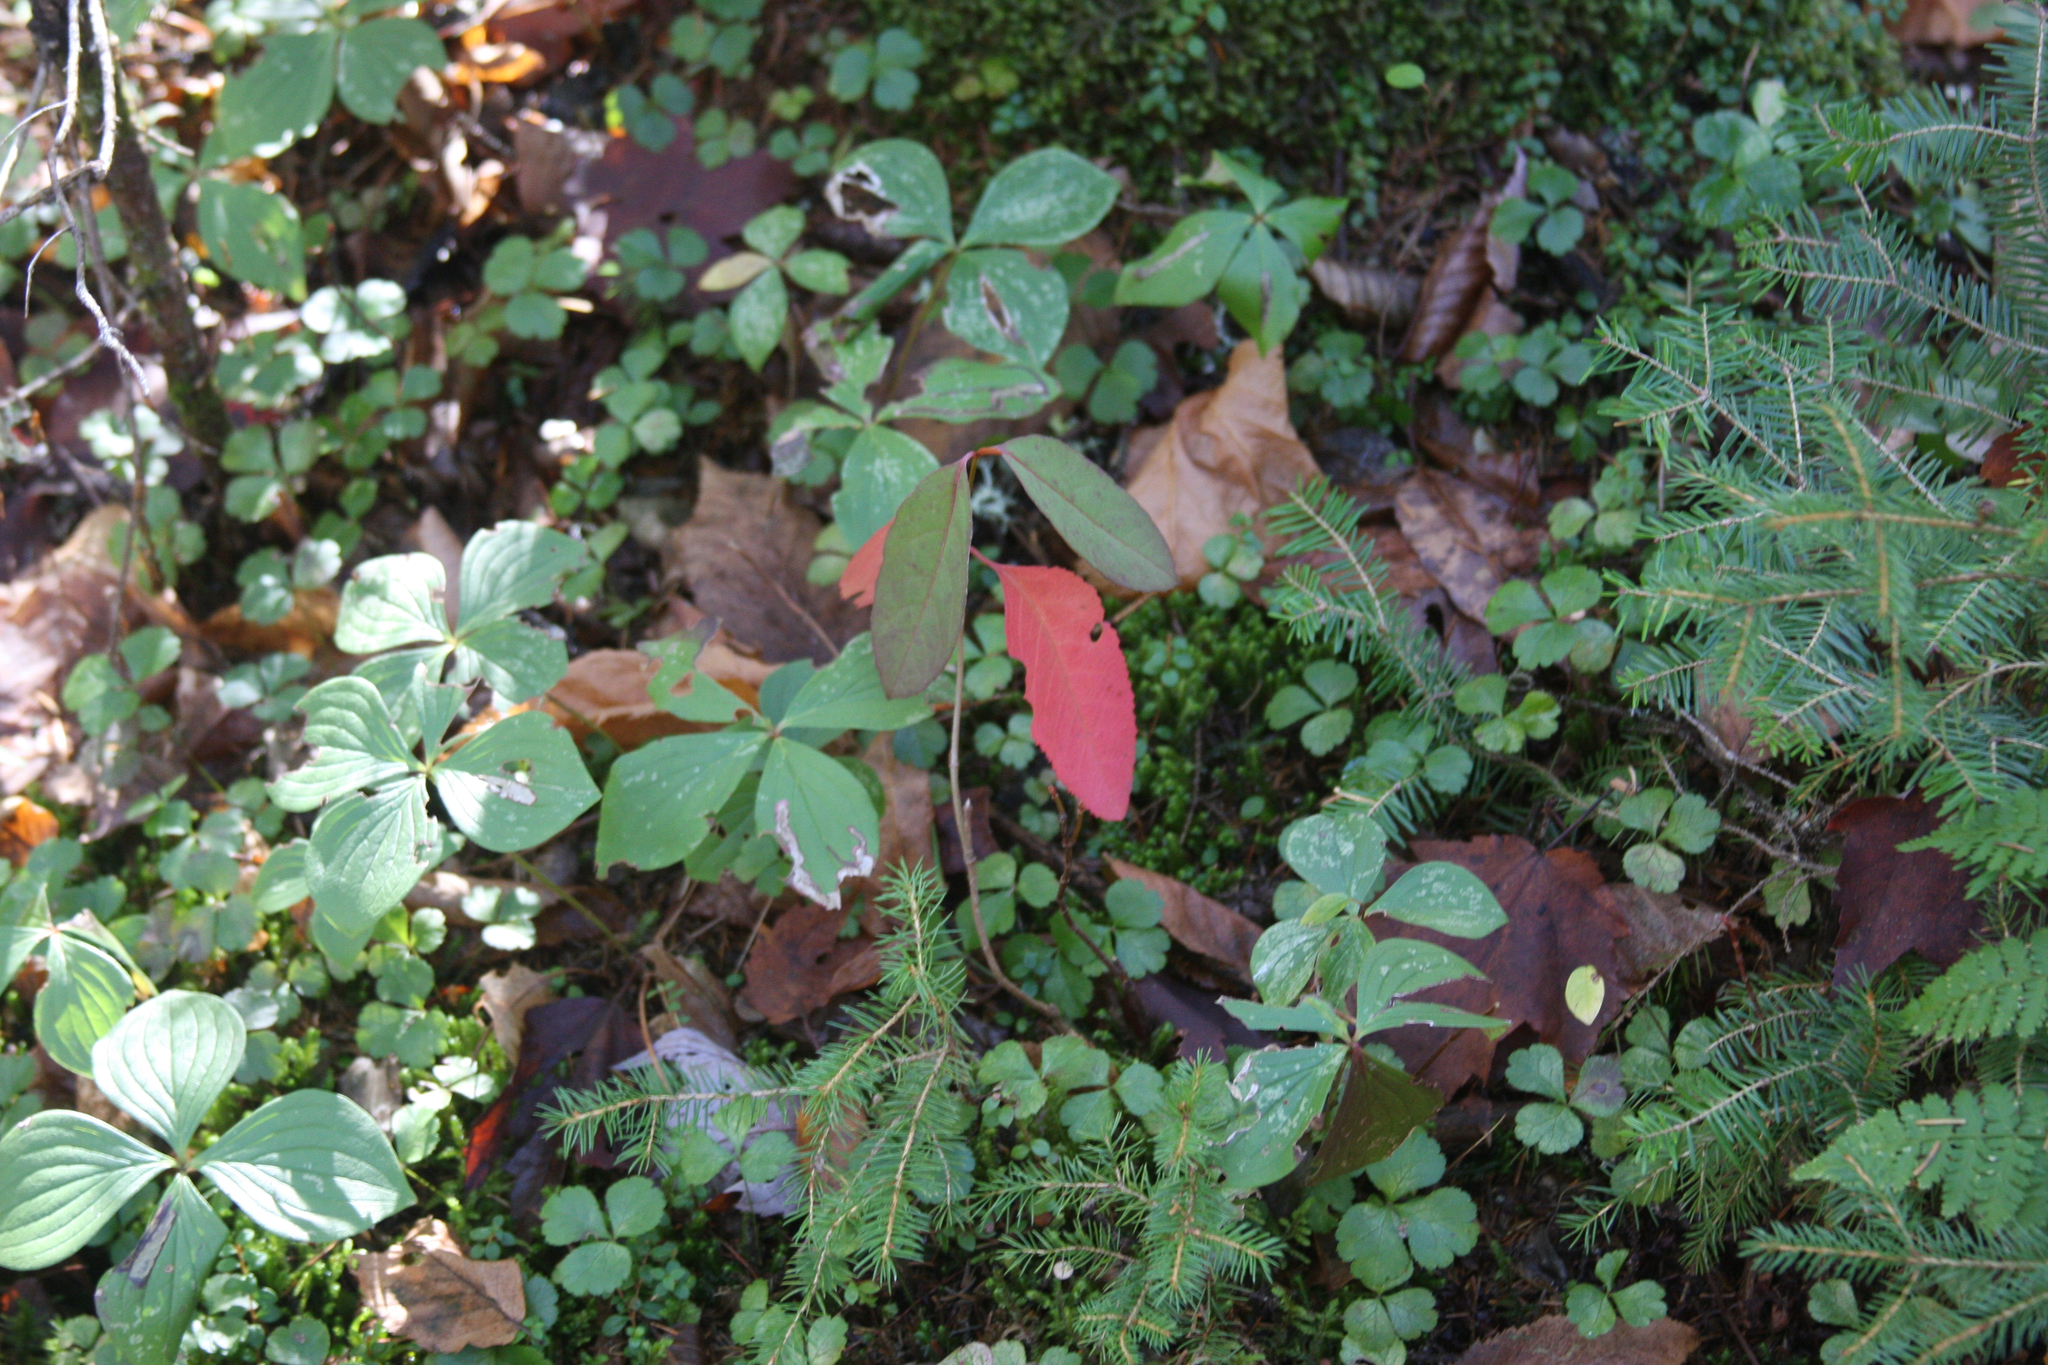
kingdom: Plantae
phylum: Tracheophyta
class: Magnoliopsida
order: Cornales
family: Cornaceae
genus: Cornus
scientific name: Cornus canadensis
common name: Creeping dogwood
